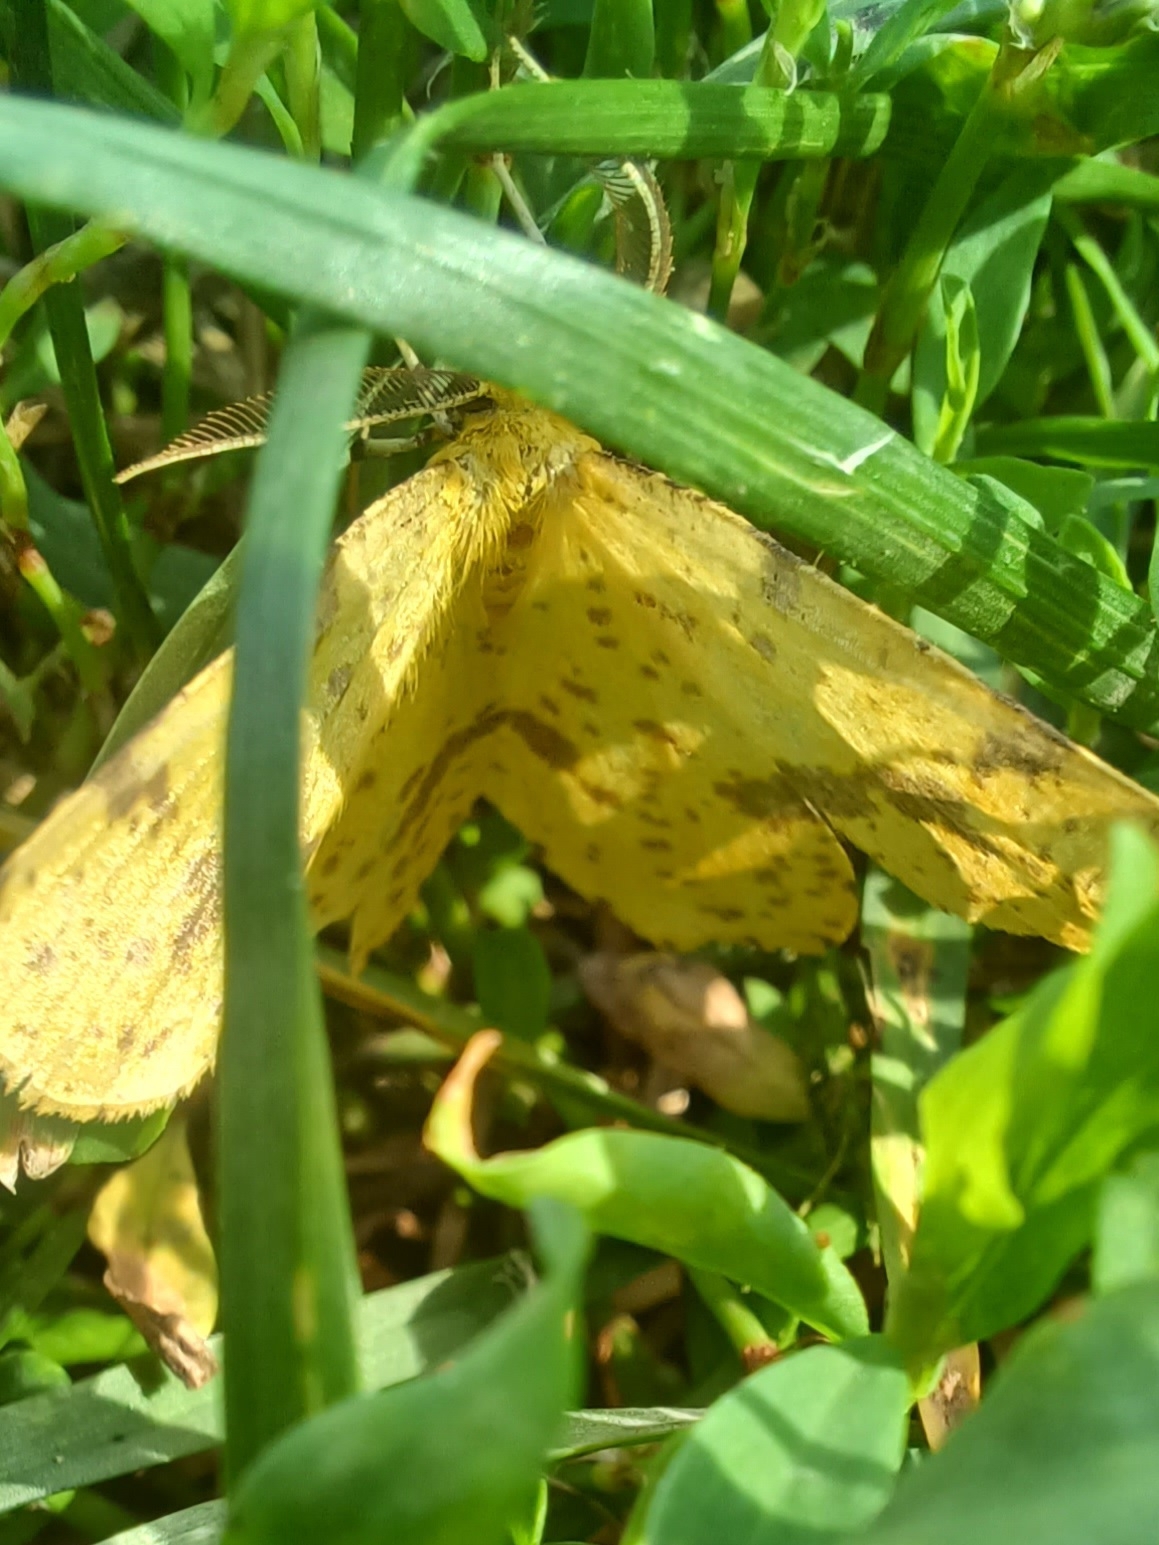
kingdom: Animalia
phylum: Arthropoda
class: Insecta
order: Lepidoptera
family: Geometridae
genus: Xanthotype
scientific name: Xanthotype
